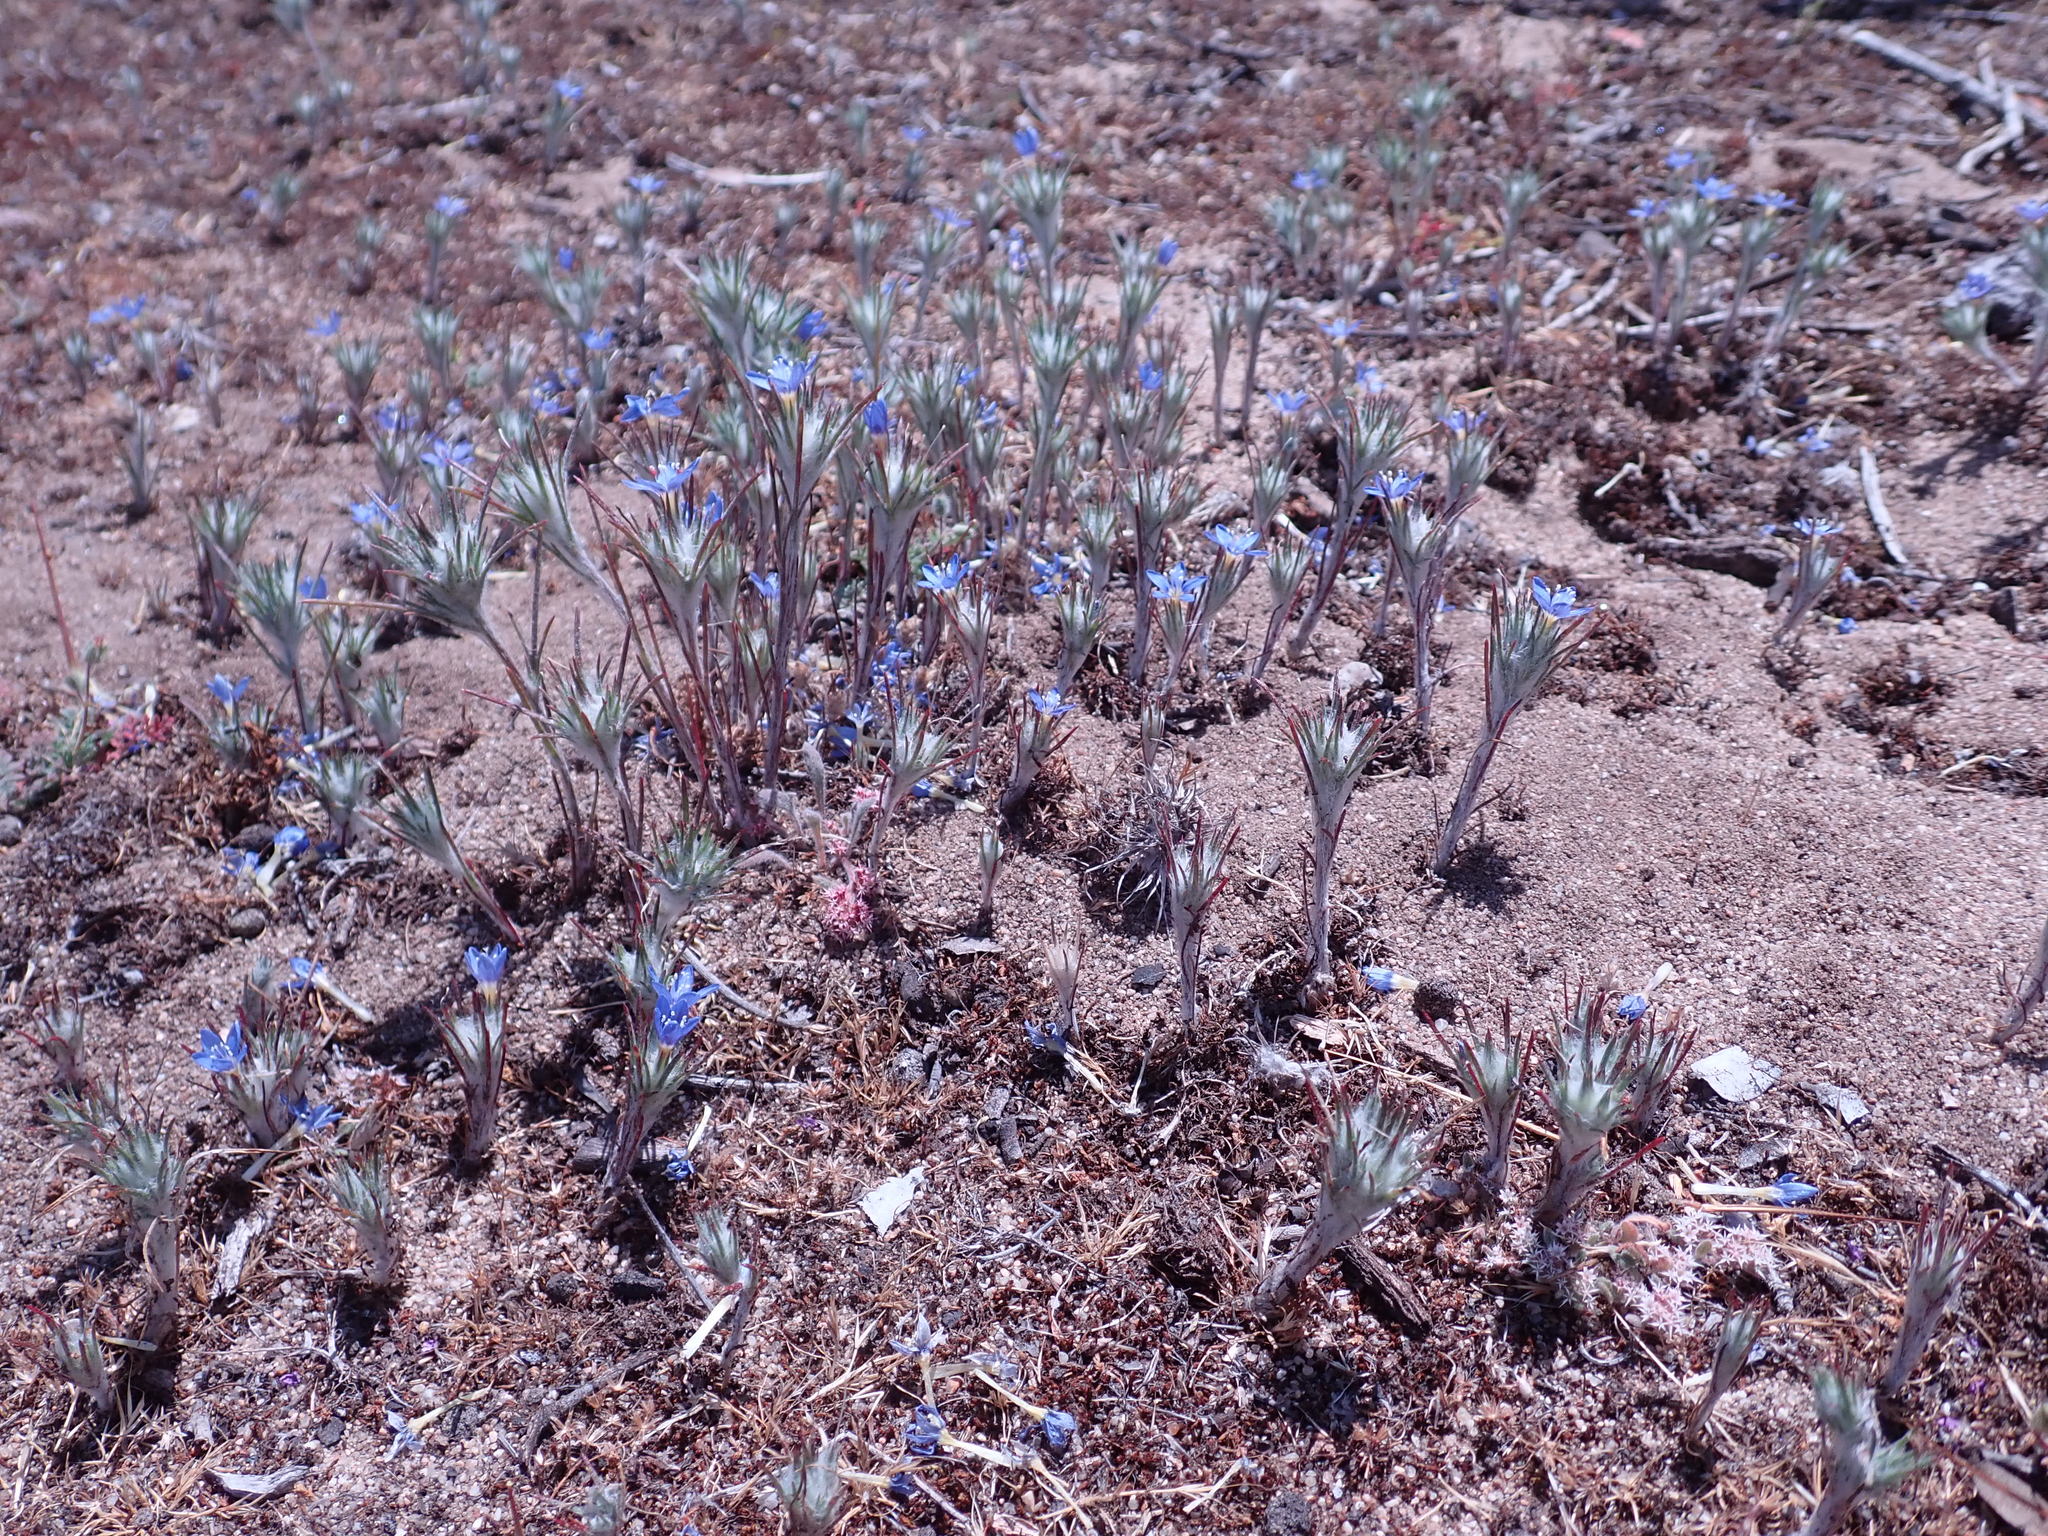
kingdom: Plantae
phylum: Tracheophyta
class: Magnoliopsida
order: Ericales
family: Polemoniaceae
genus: Eriastrum
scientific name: Eriastrum virgatum
